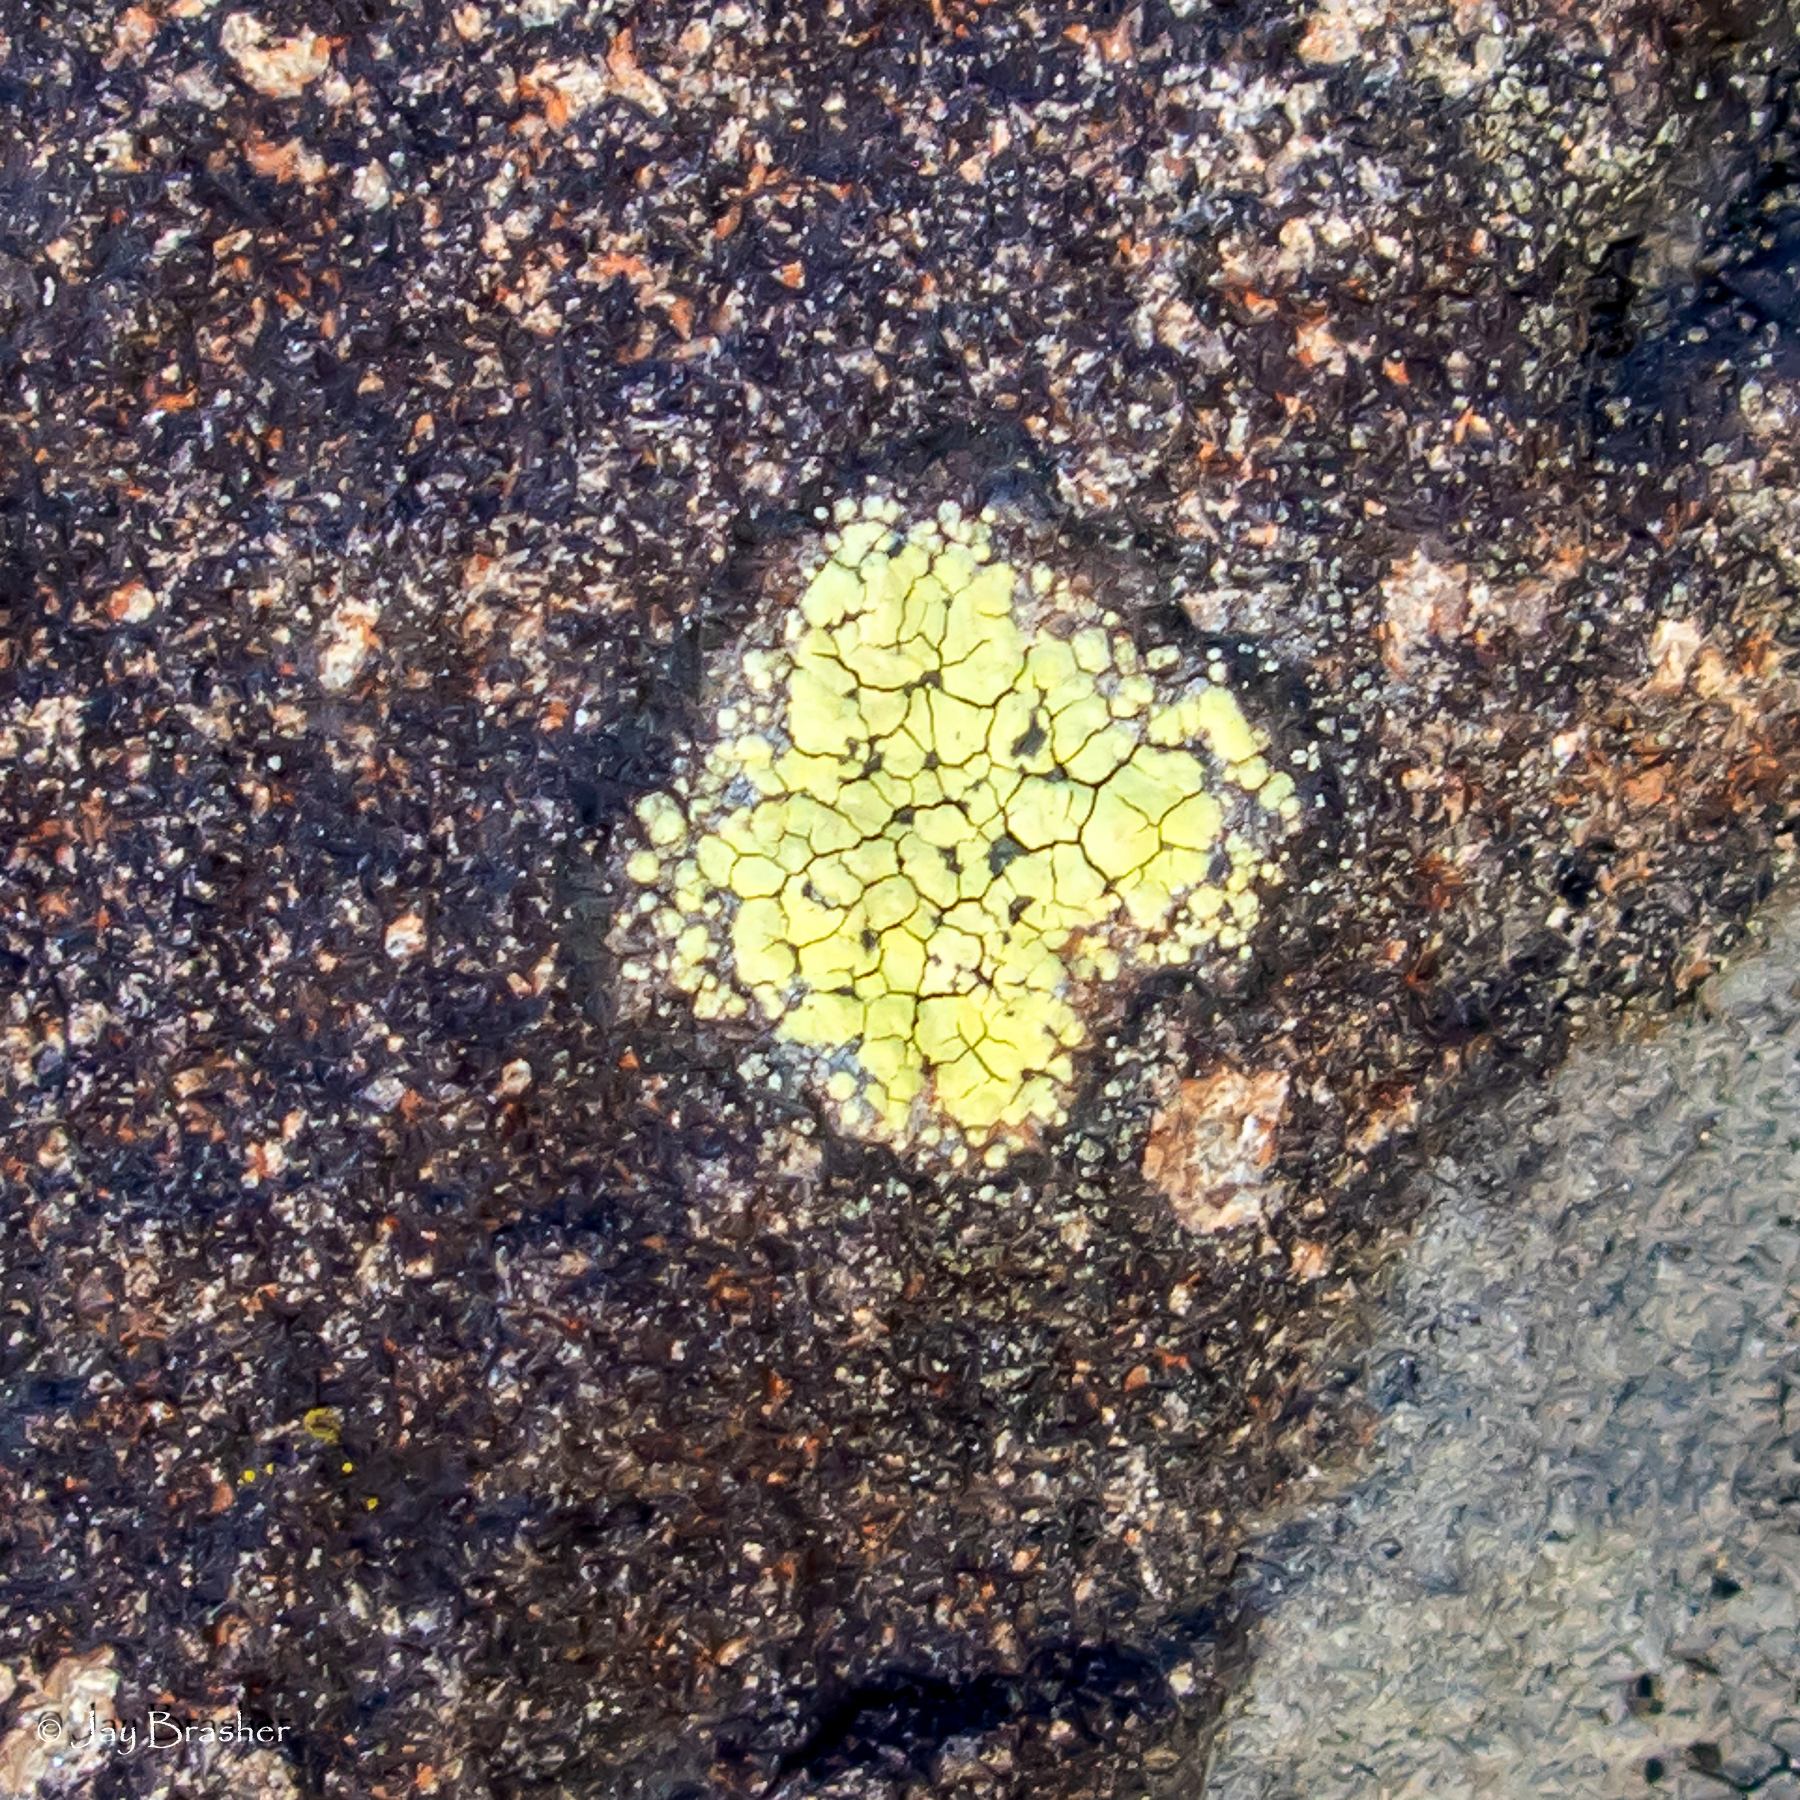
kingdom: Fungi
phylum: Ascomycota
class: Lecanoromycetes
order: Rhizocarpales
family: Rhizocarpaceae
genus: Rhizocarpon
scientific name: Rhizocarpon geographicum
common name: Yellow map lichen
